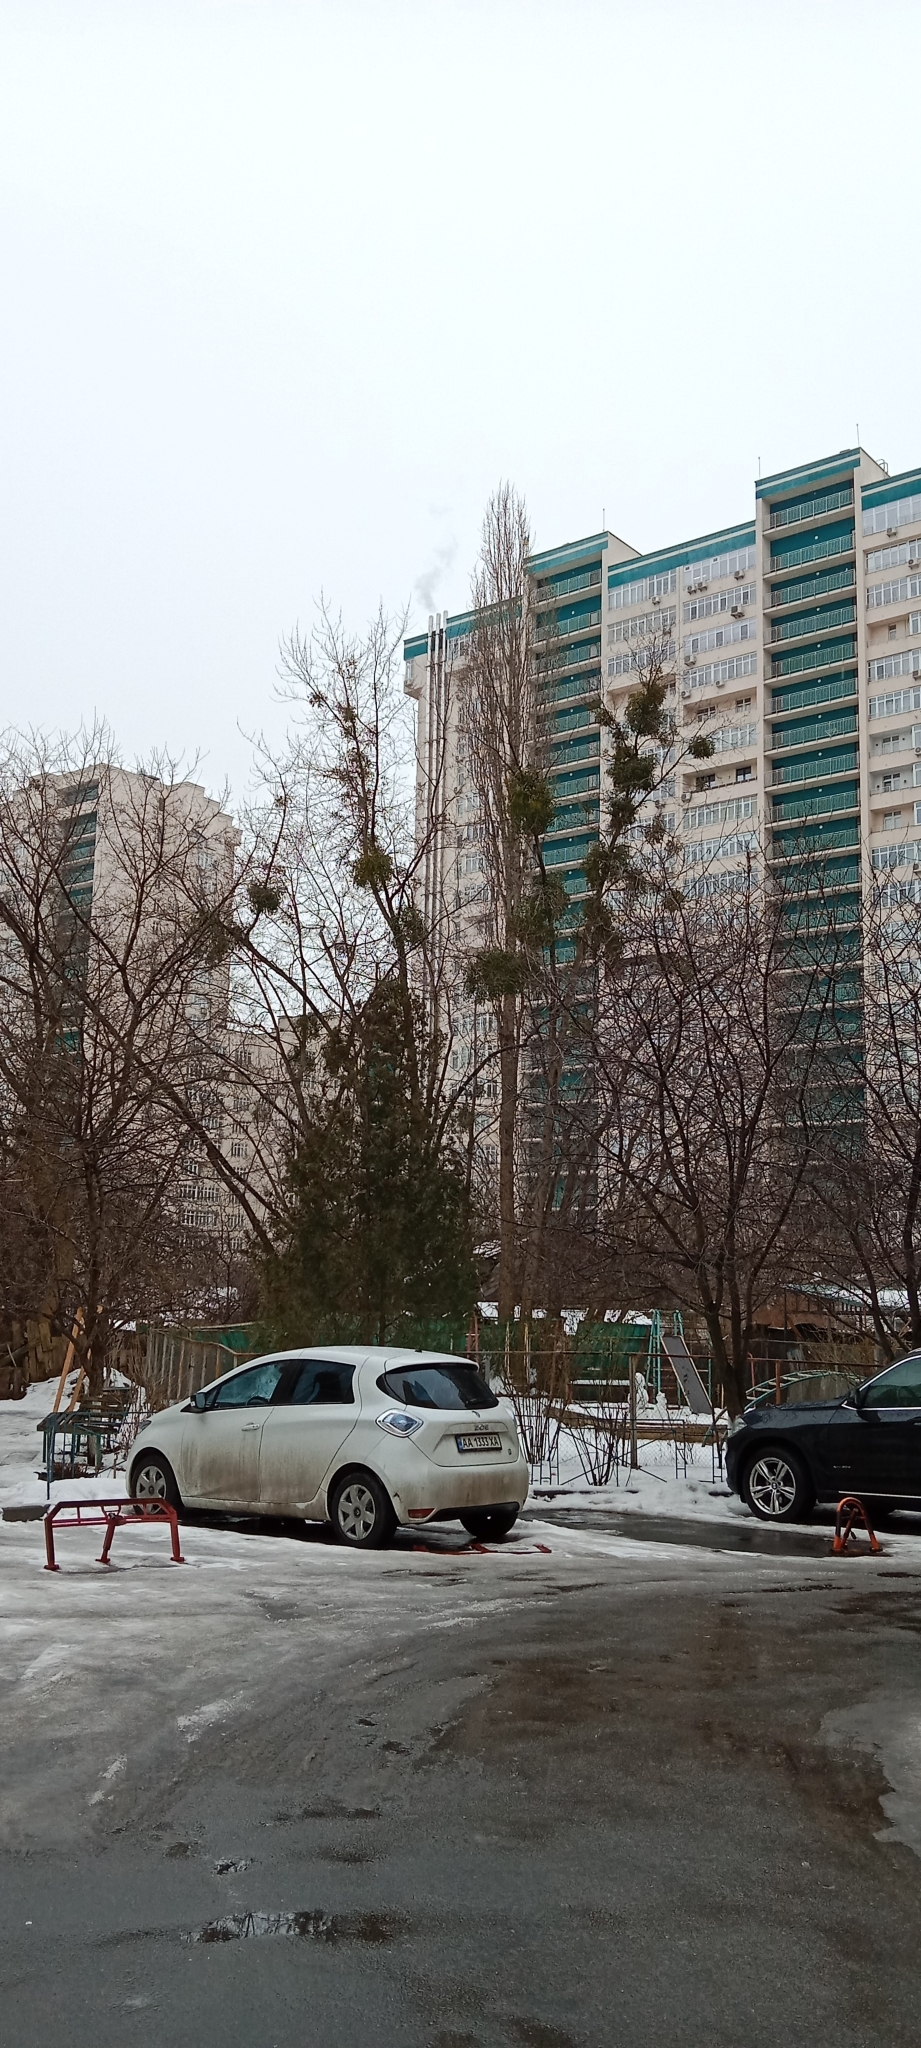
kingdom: Plantae
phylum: Tracheophyta
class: Magnoliopsida
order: Santalales
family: Viscaceae
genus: Viscum
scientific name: Viscum album
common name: Mistletoe
